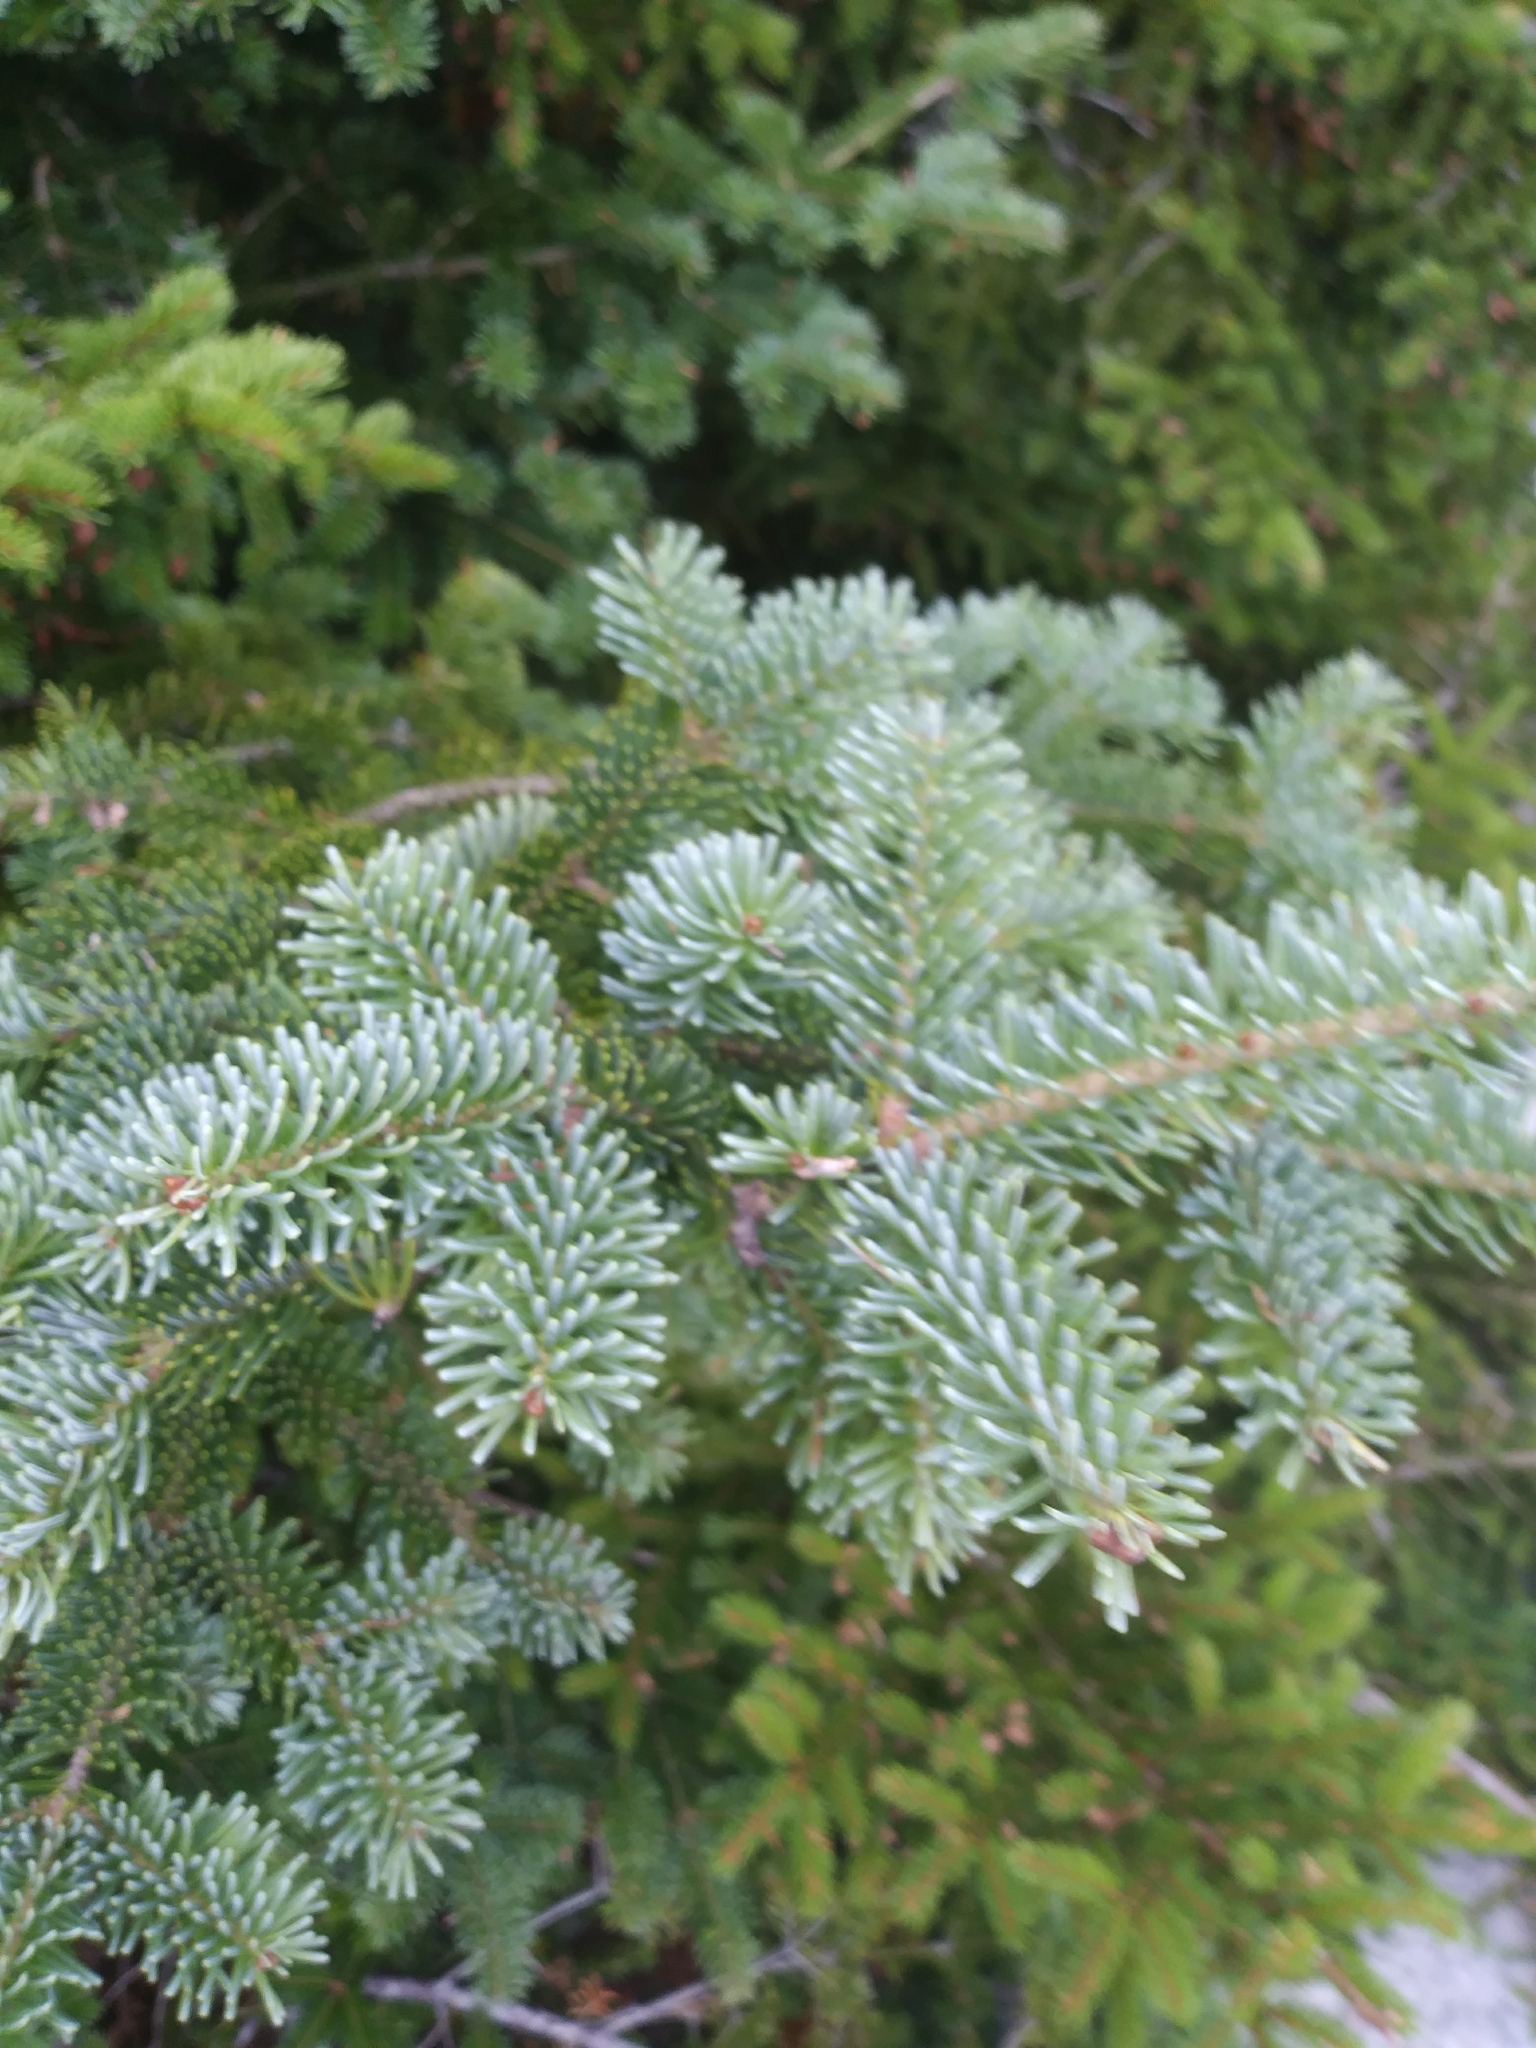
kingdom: Plantae
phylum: Tracheophyta
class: Pinopsida
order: Pinales
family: Pinaceae
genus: Abies
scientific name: Abies balsamea
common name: Balsam fir
